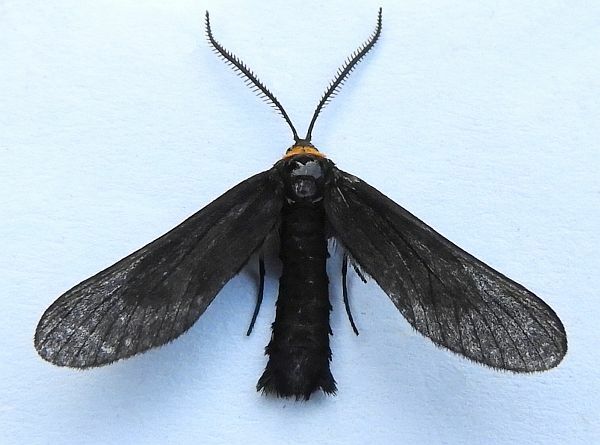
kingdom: Animalia
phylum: Arthropoda
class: Insecta
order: Lepidoptera
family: Zygaenidae
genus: Harrisina
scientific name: Harrisina americana
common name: Grapeleaf skeletonizer moth
